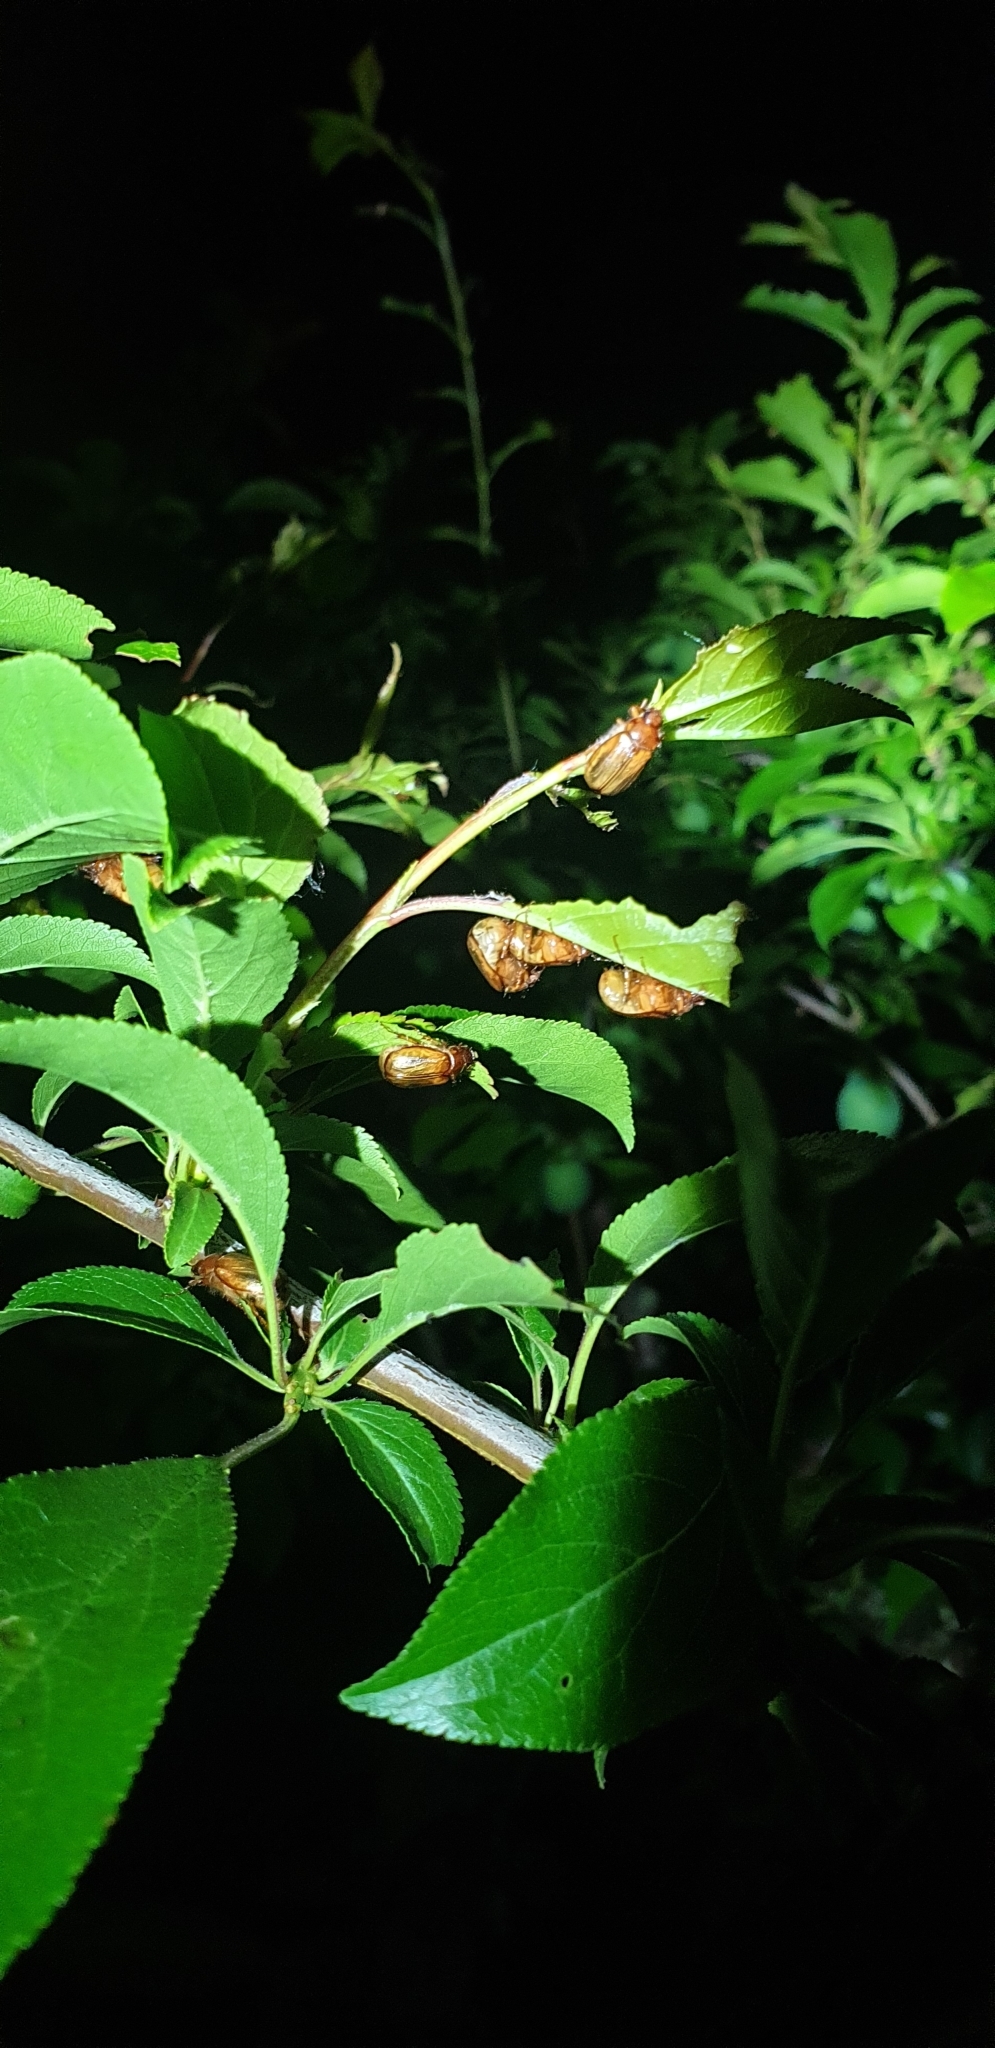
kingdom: Animalia
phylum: Arthropoda
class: Insecta
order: Coleoptera
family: Scarabaeidae
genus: Costelytra
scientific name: Costelytra zealandica
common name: New zealand grass grub
